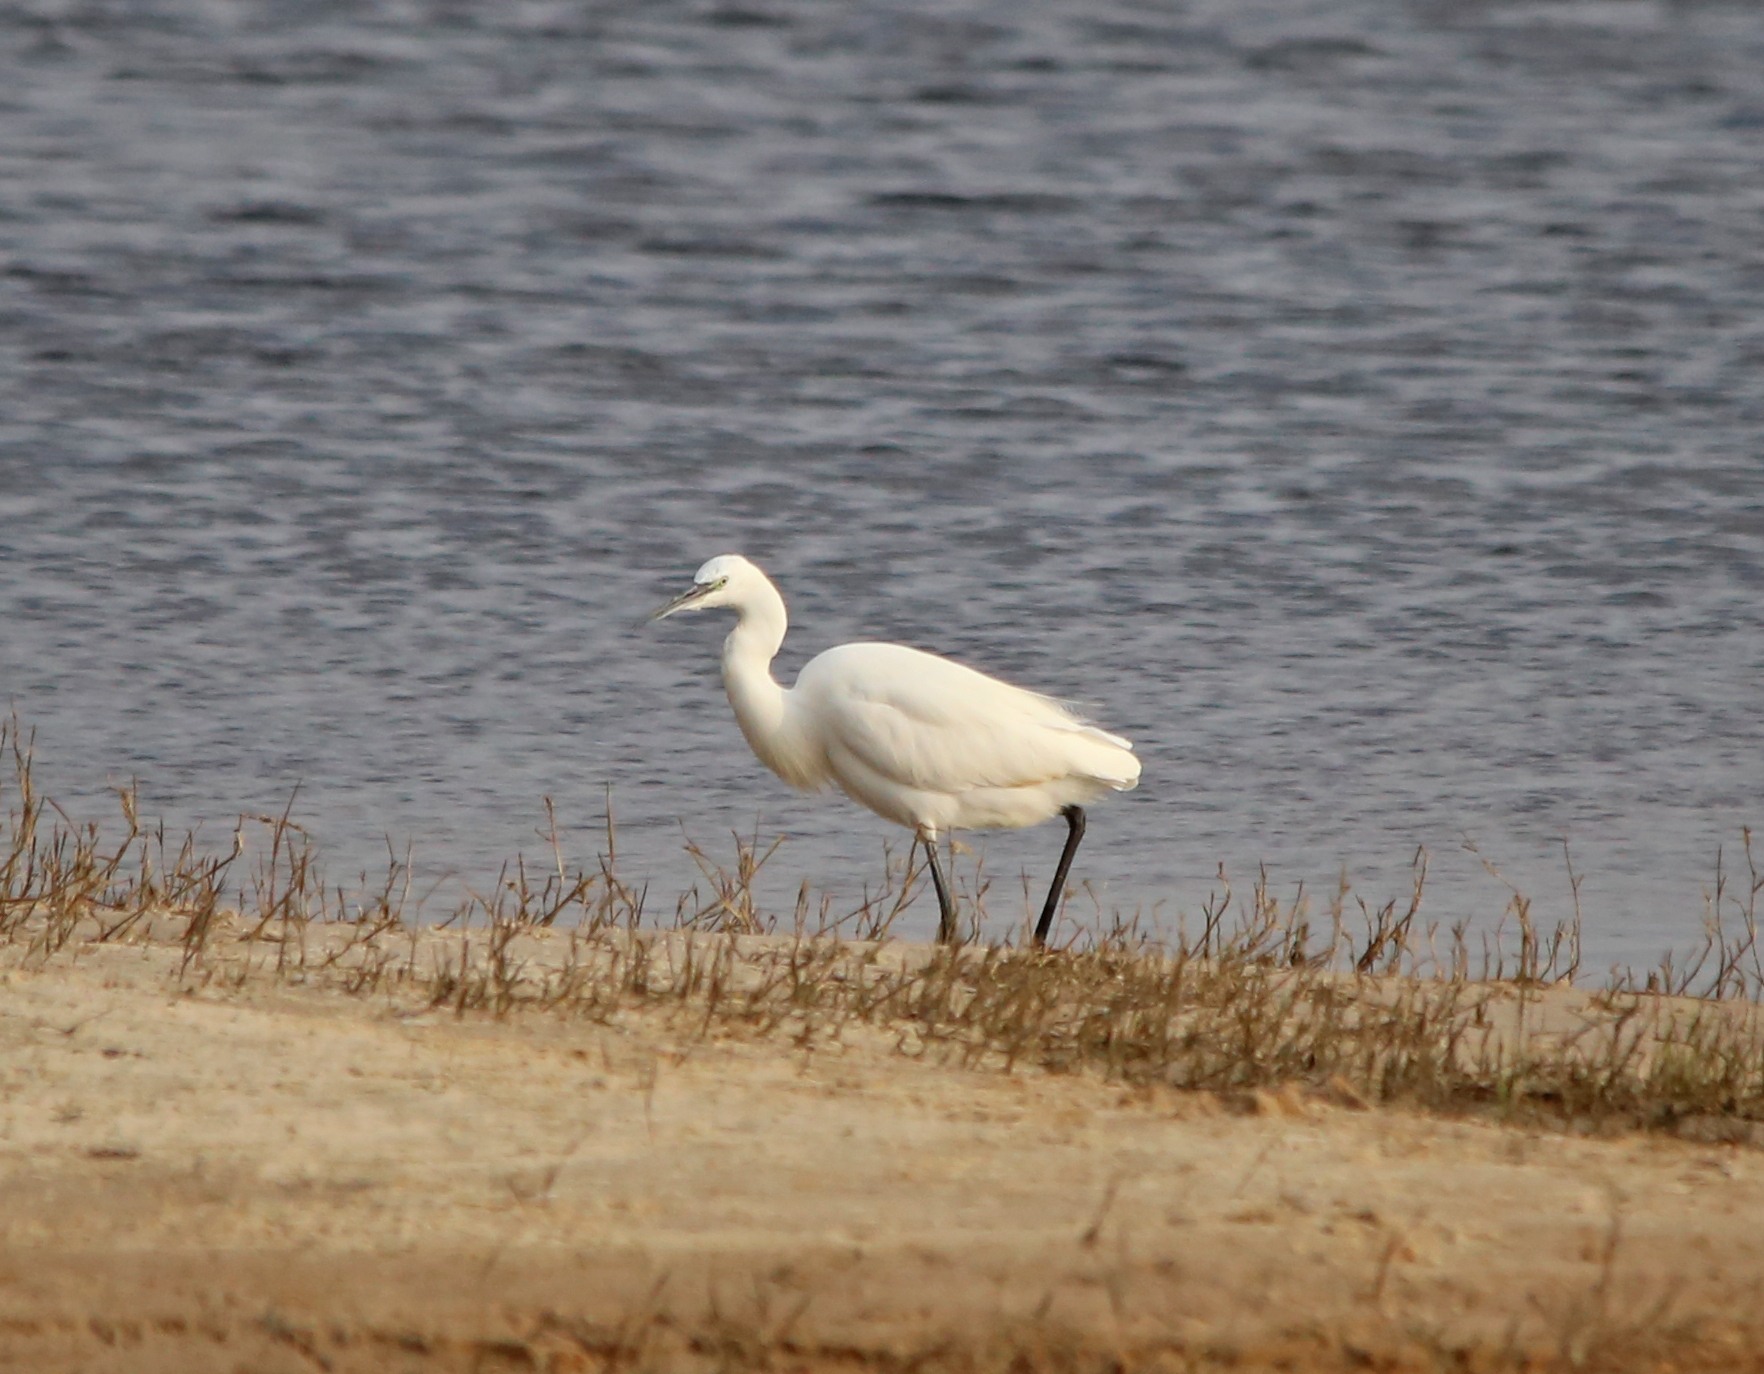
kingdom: Animalia
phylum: Chordata
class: Aves
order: Pelecaniformes
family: Ardeidae
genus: Egretta
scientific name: Egretta garzetta
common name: Little egret
